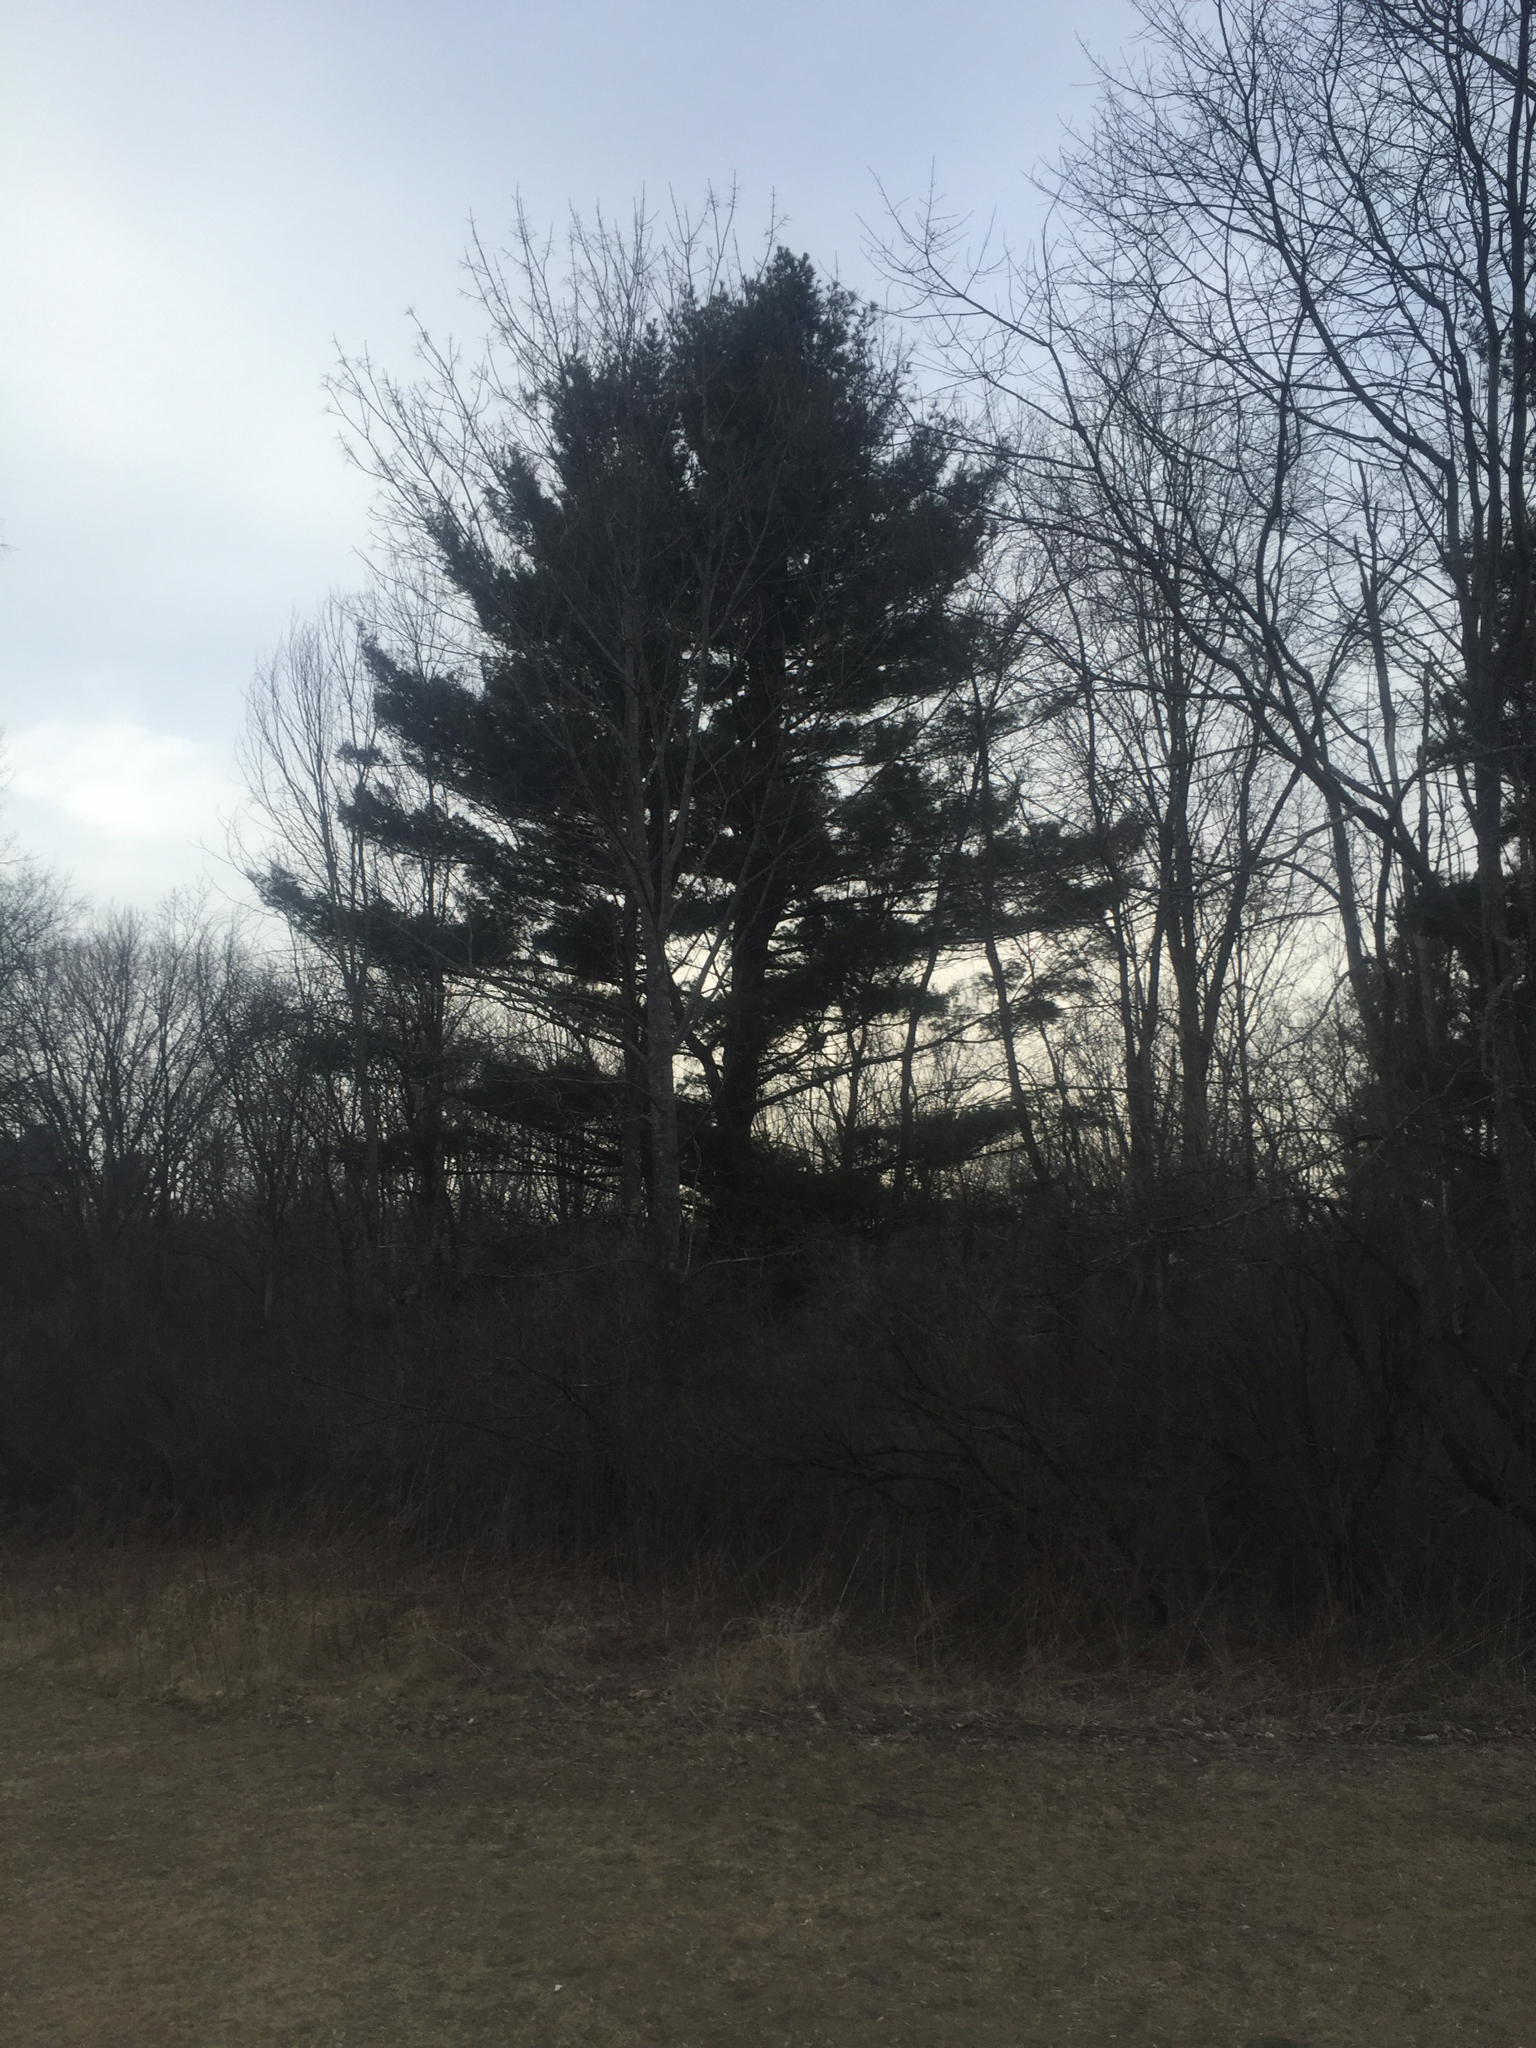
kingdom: Plantae
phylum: Tracheophyta
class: Pinopsida
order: Pinales
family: Pinaceae
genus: Pinus
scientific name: Pinus strobus
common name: Weymouth pine
